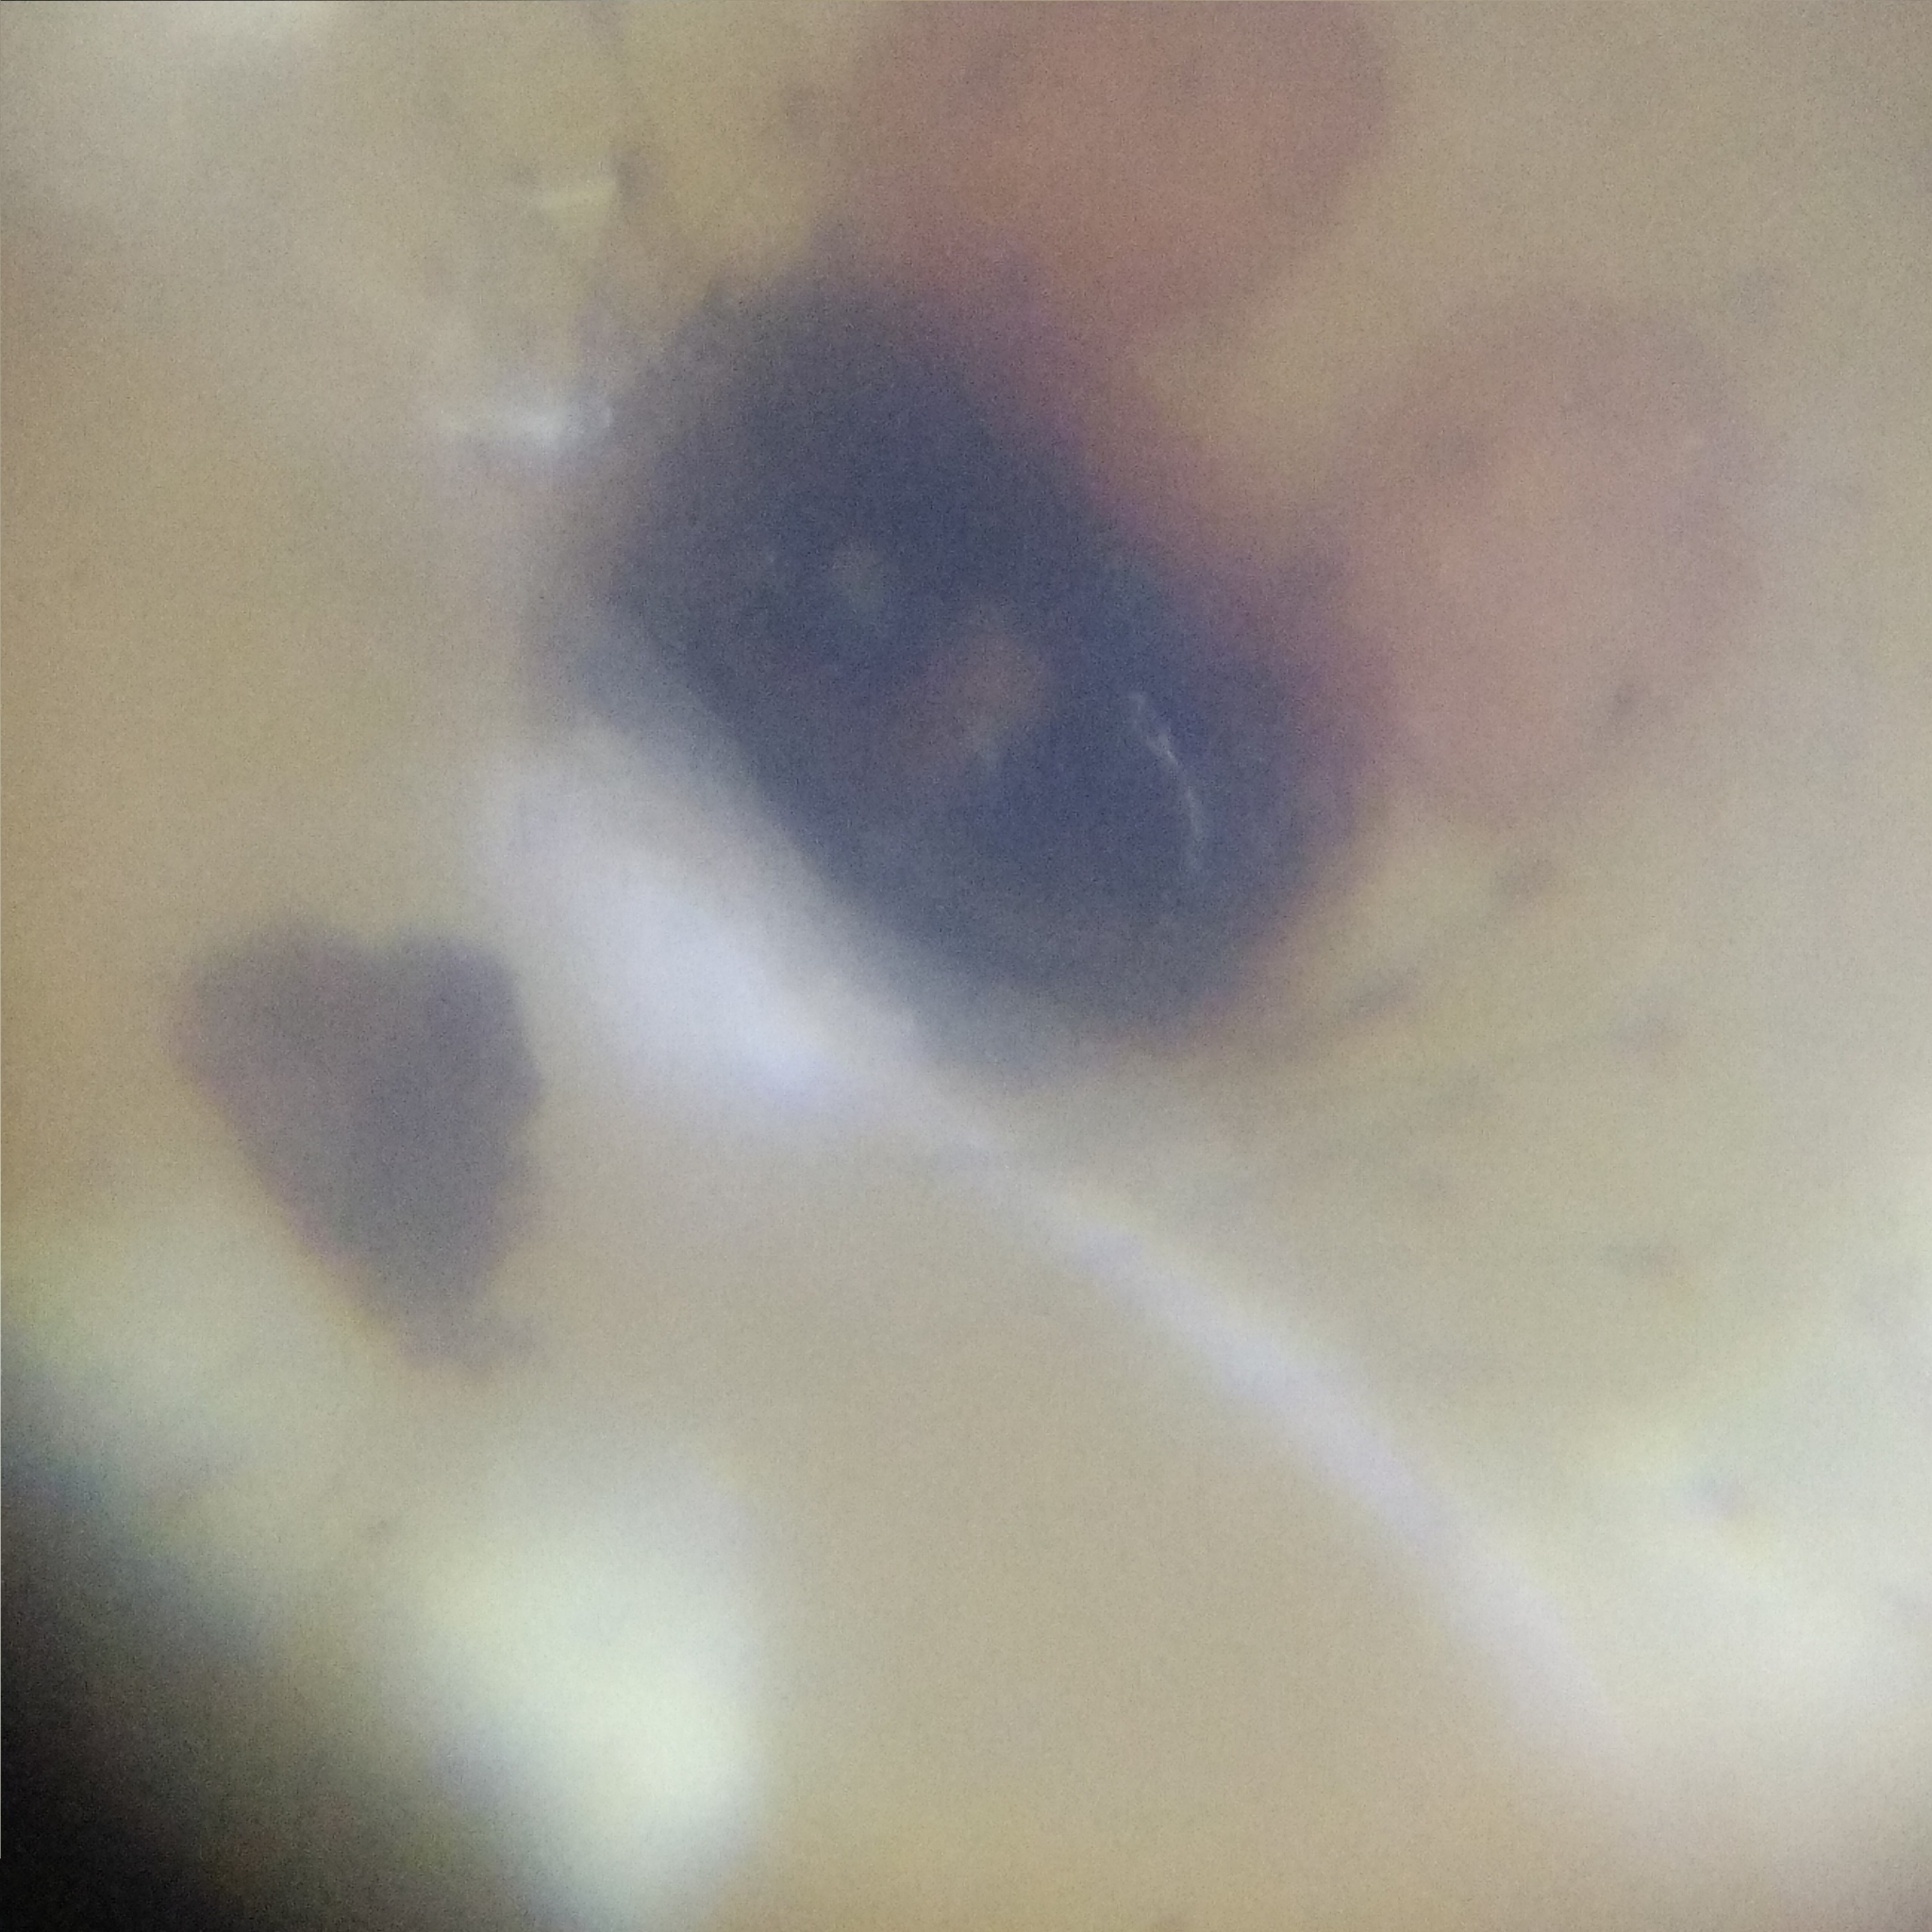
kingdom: Animalia
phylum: Arthropoda
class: Arachnida
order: Araneae
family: Theridiidae
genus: Enoplognatha
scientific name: Enoplognatha ovata
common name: Common candy-striped spider
